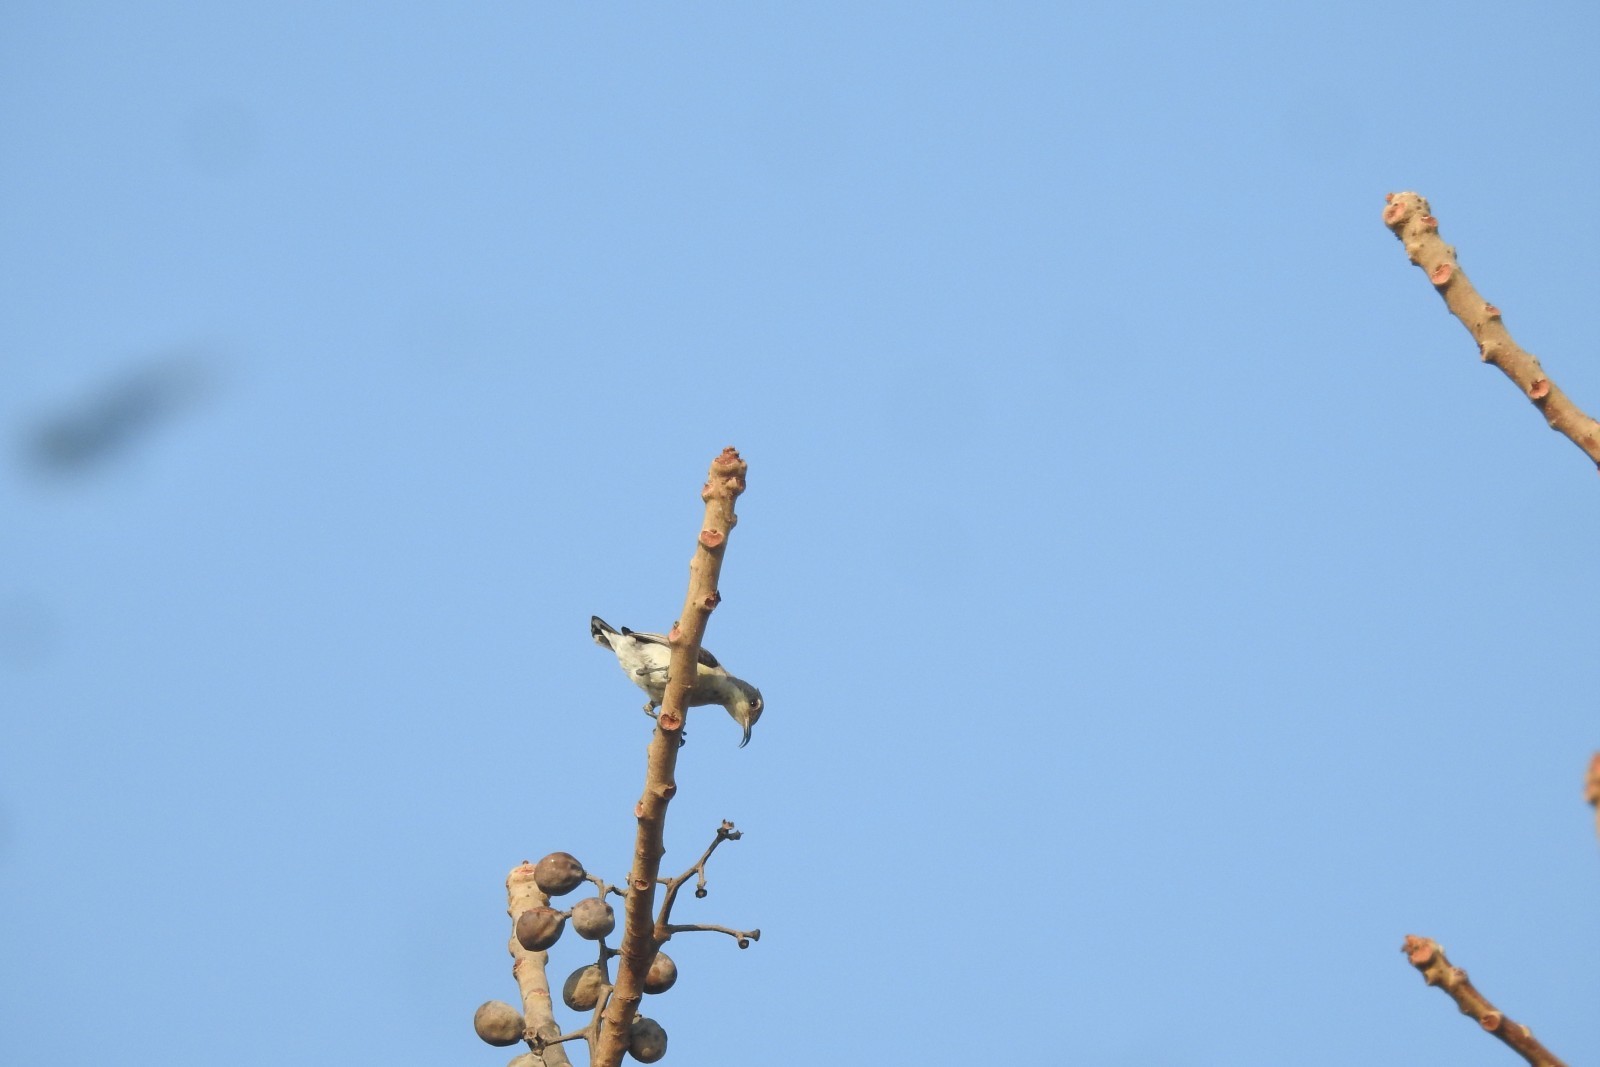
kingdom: Animalia
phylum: Chordata
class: Aves
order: Passeriformes
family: Nectariniidae
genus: Cinnyris
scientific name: Cinnyris asiaticus
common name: Purple sunbird
